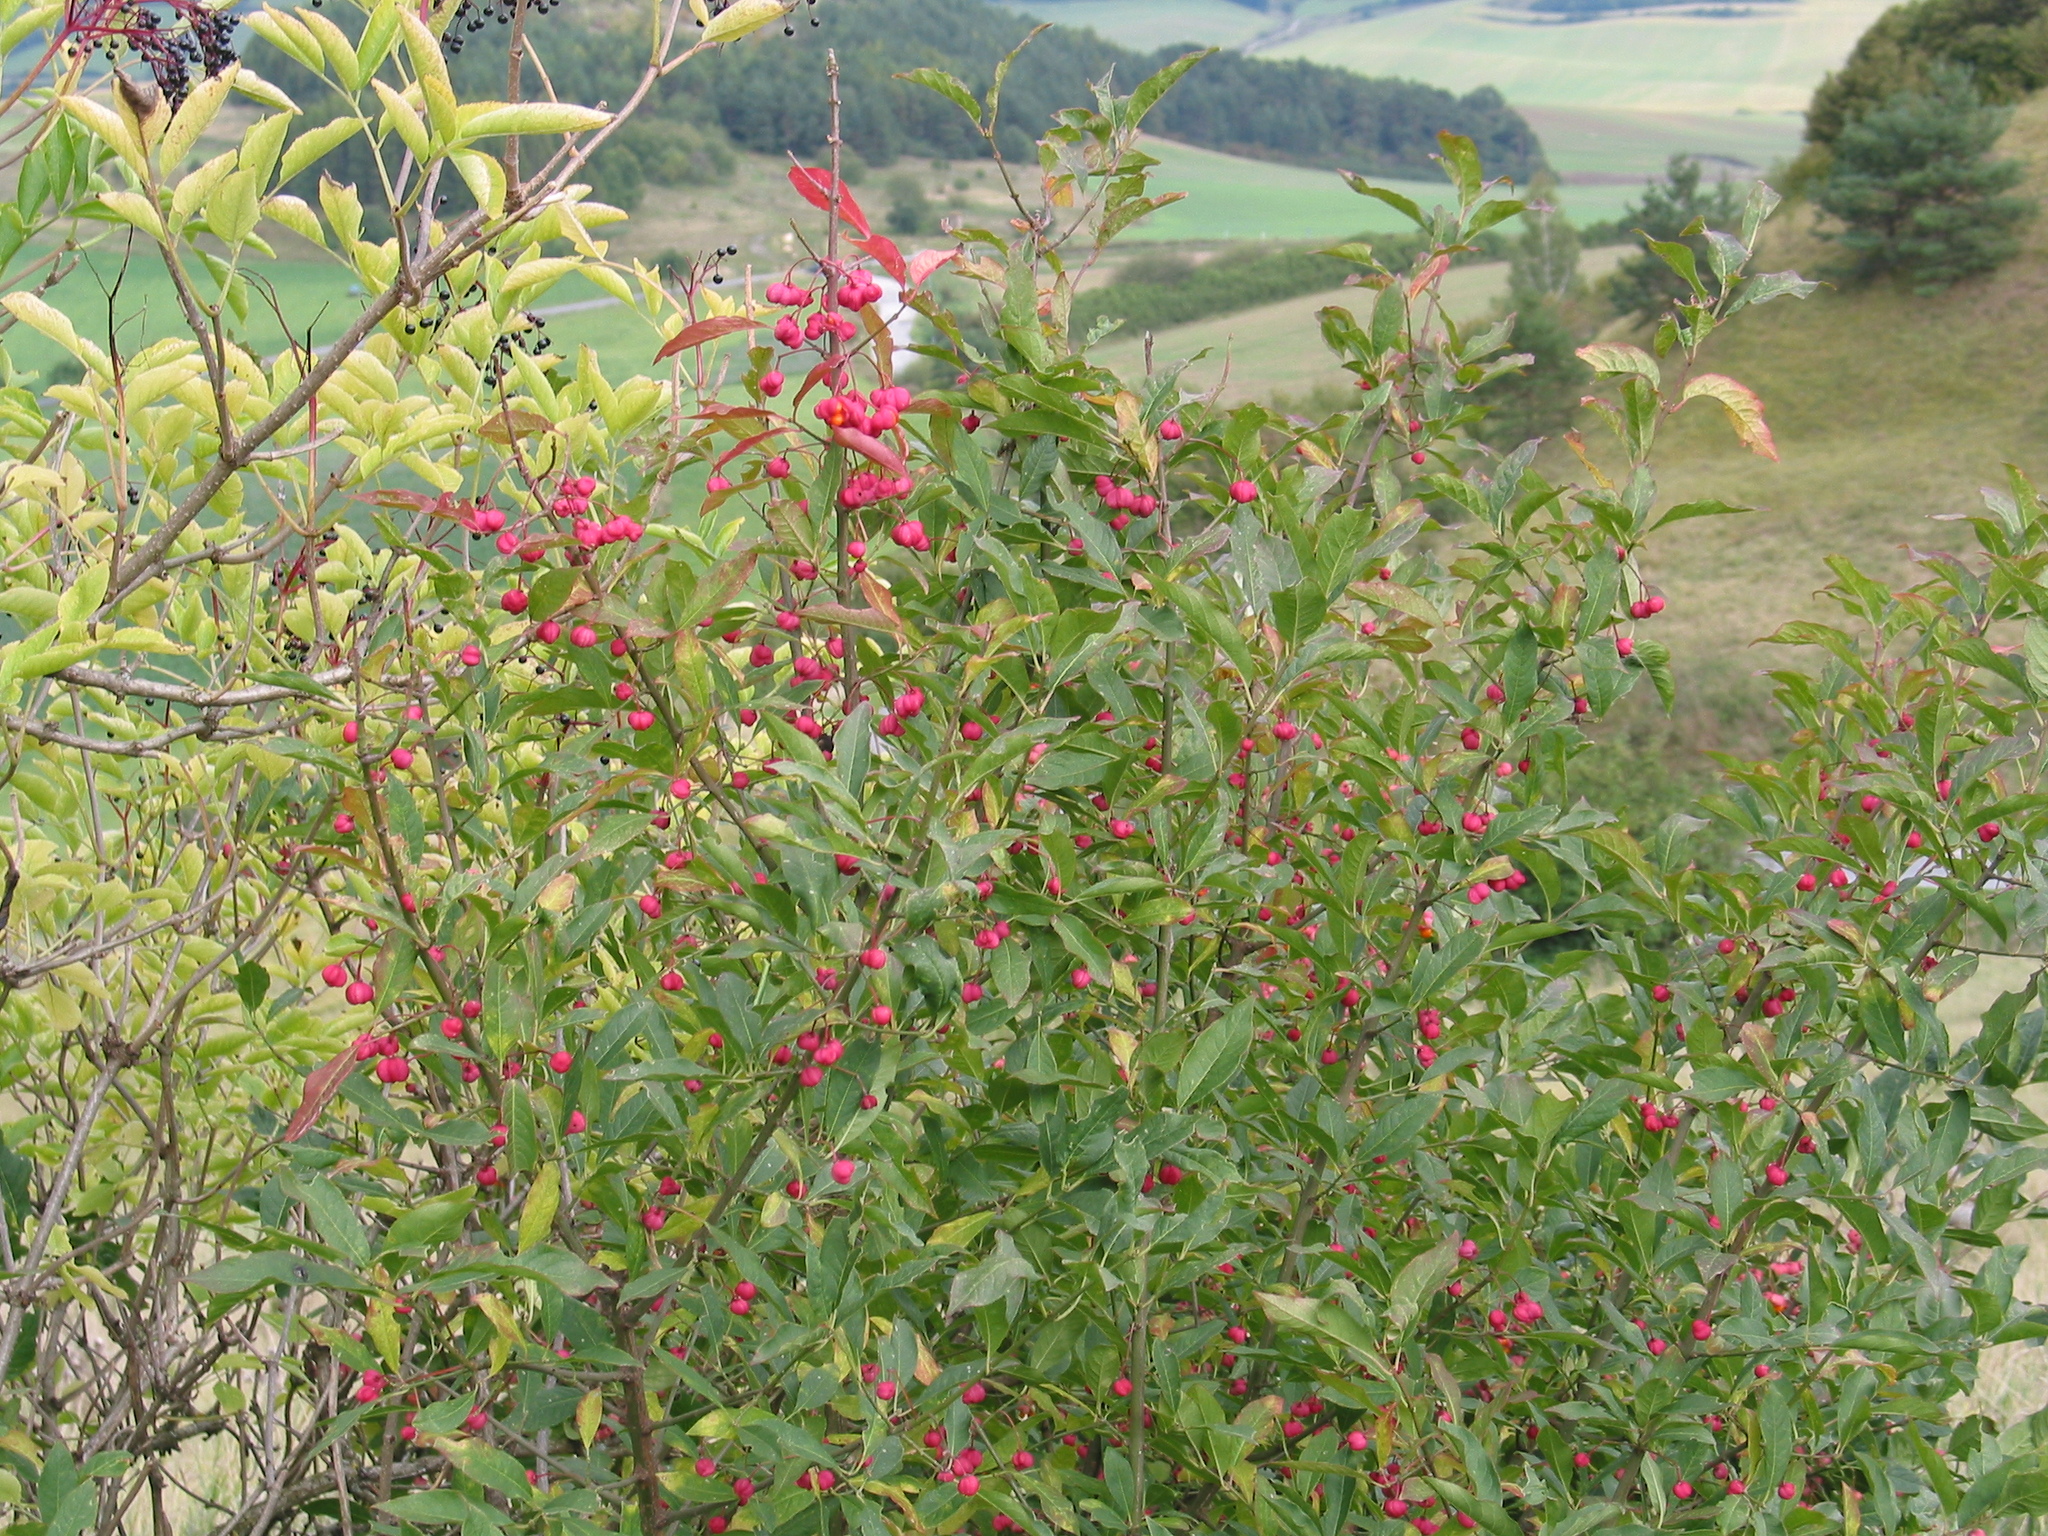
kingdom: Plantae
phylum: Tracheophyta
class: Magnoliopsida
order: Celastrales
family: Celastraceae
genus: Euonymus
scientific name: Euonymus europaeus
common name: Spindle
